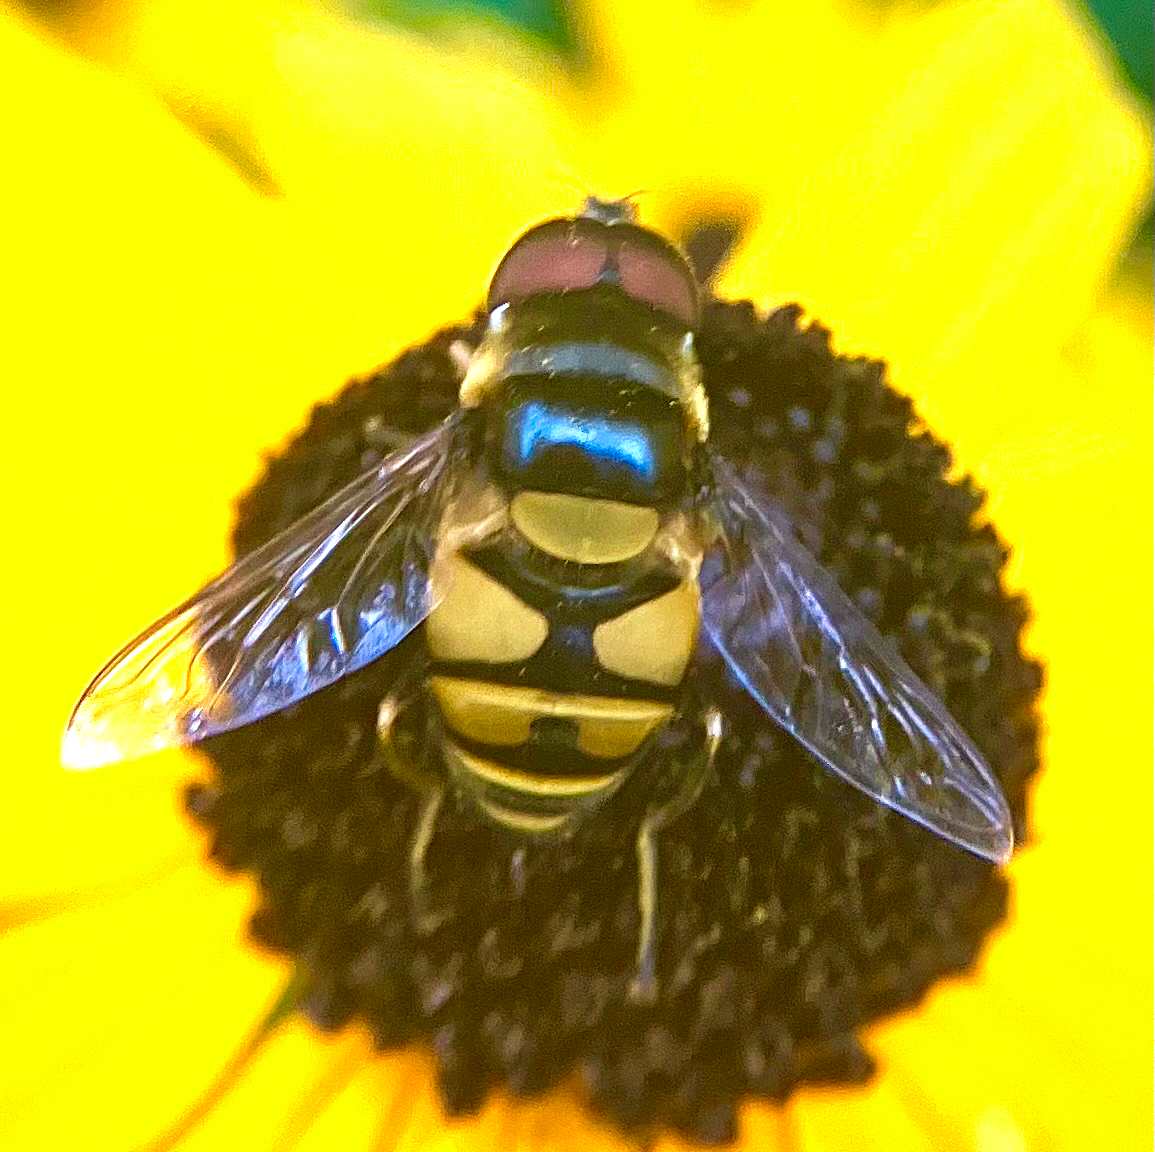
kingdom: Animalia
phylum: Arthropoda
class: Insecta
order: Diptera
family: Syrphidae
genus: Eristalis
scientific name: Eristalis transversa
